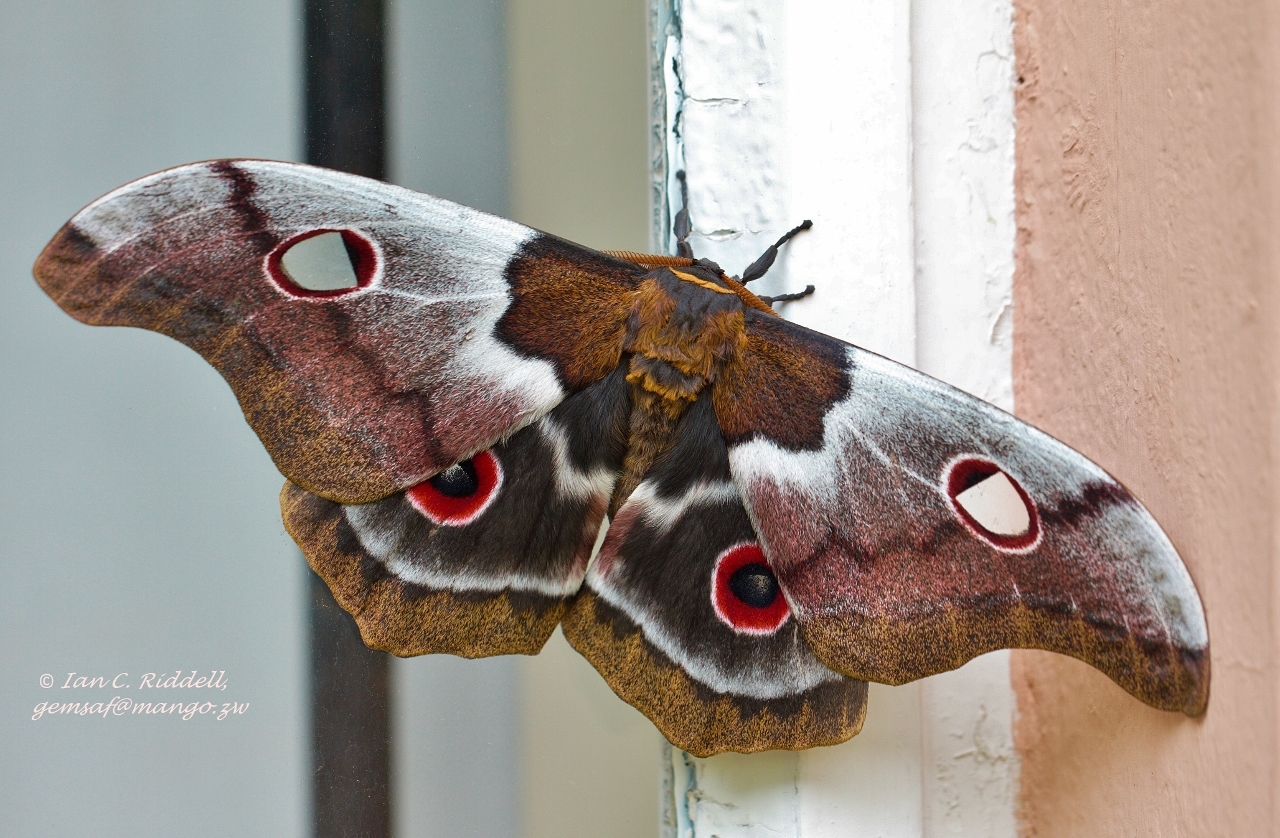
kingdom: Animalia
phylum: Arthropoda
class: Insecta
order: Lepidoptera
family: Saturniidae
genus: Gonimbrasia
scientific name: Gonimbrasia
